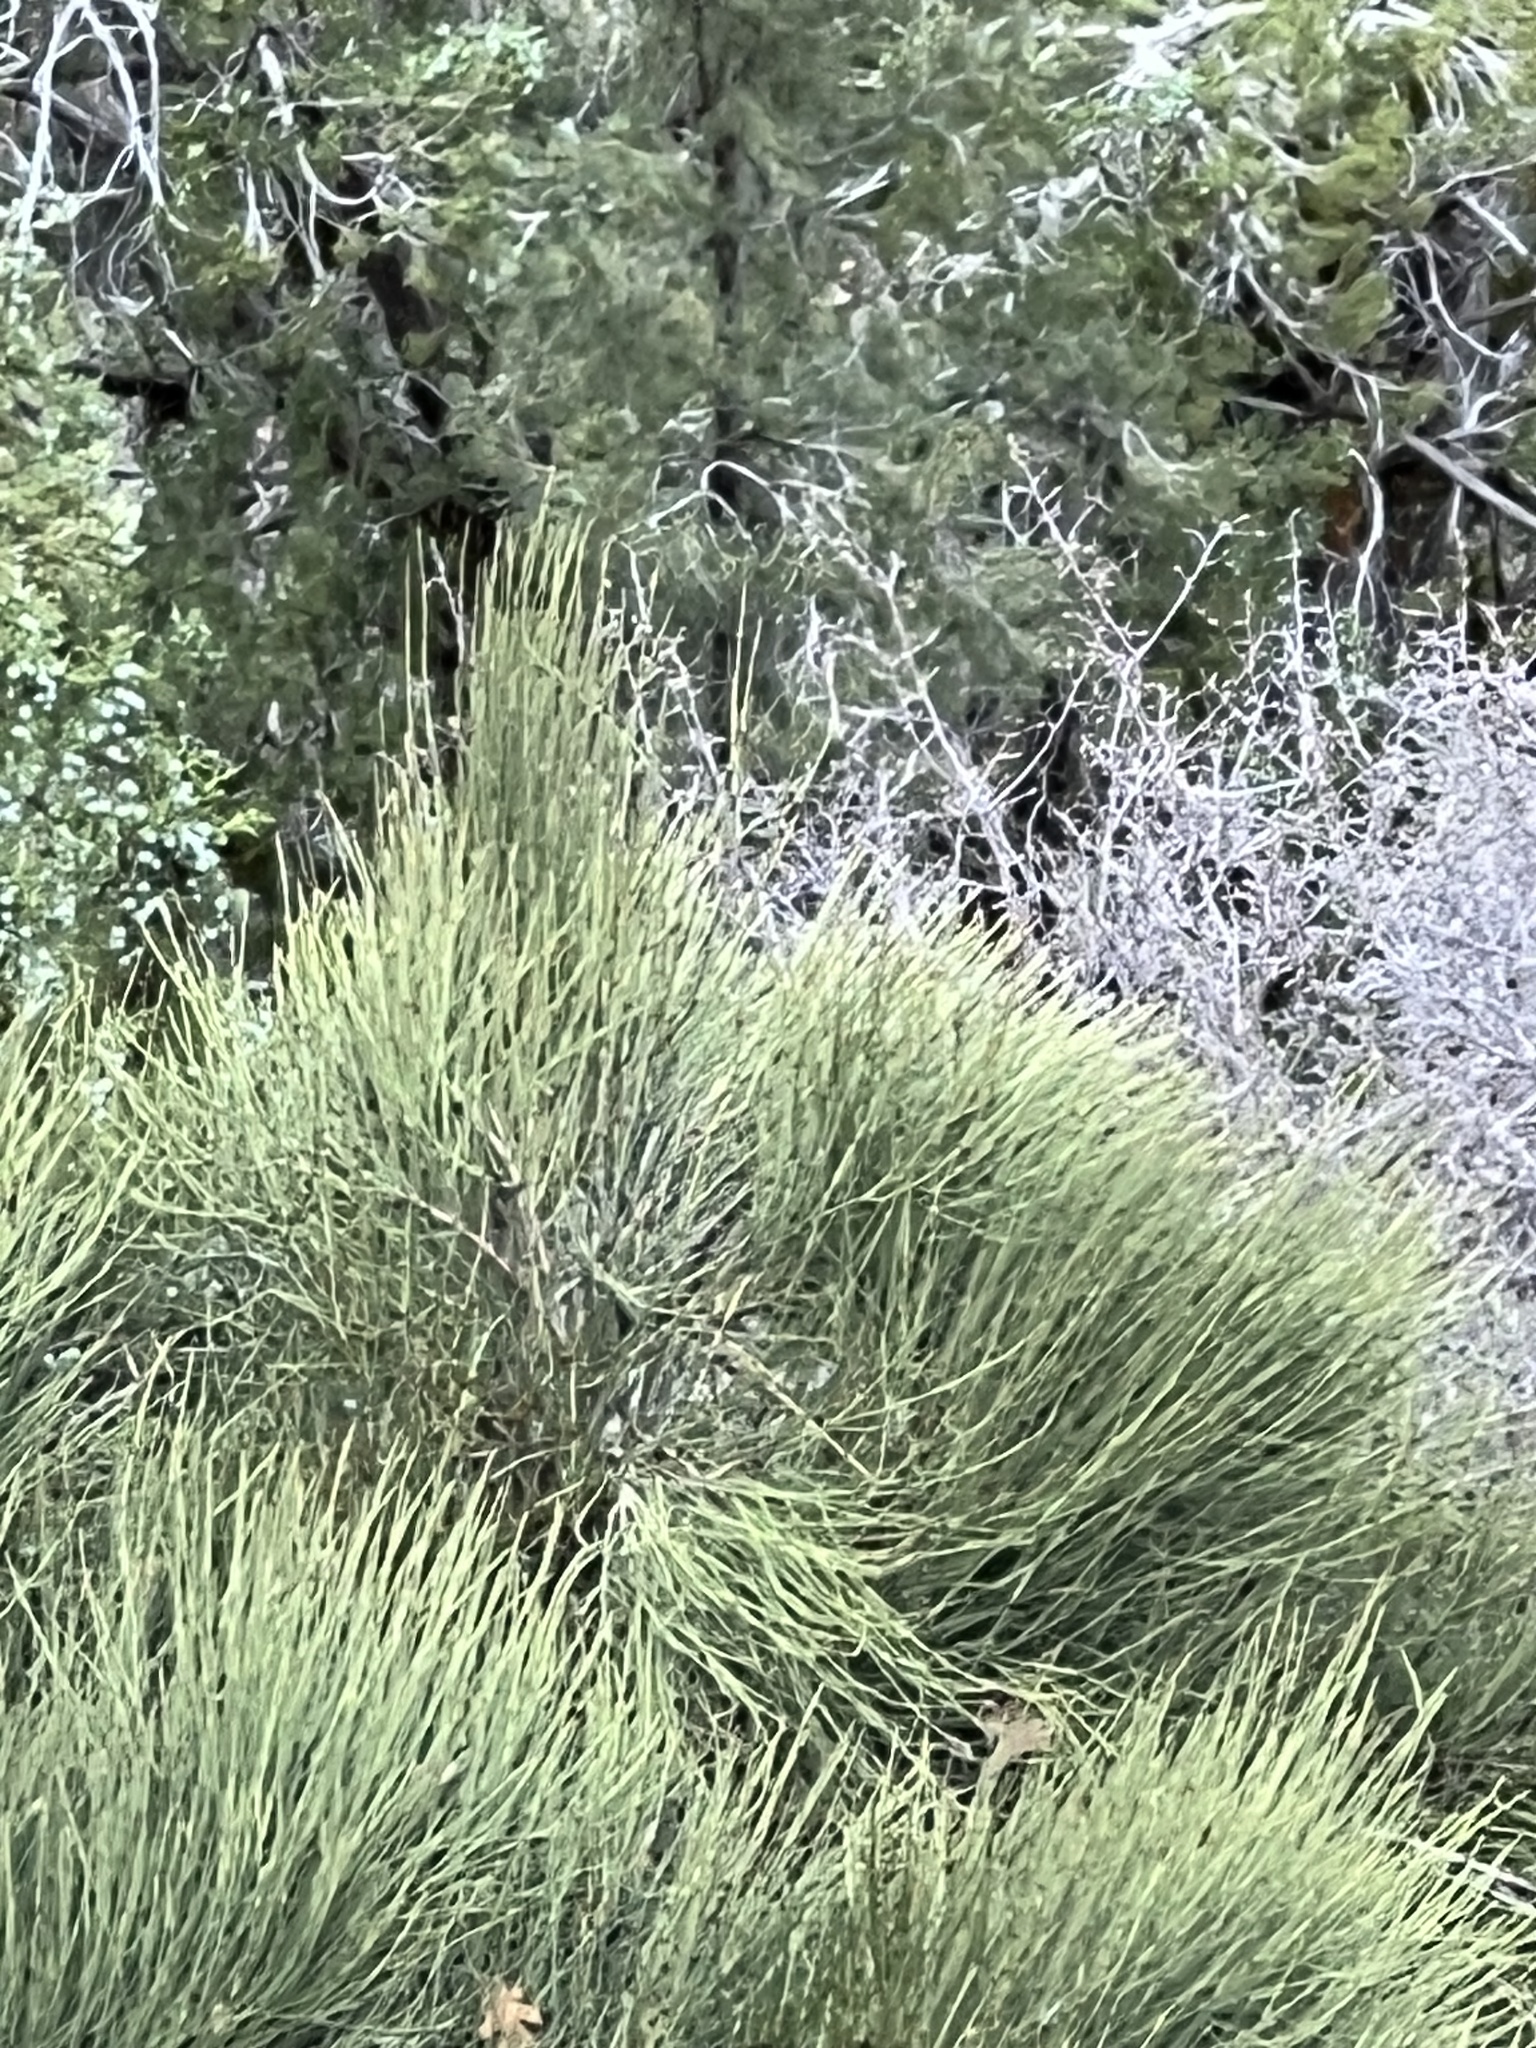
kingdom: Plantae
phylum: Tracheophyta
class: Gnetopsida
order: Ephedrales
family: Ephedraceae
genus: Ephedra
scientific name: Ephedra viridis
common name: Green ephedra
